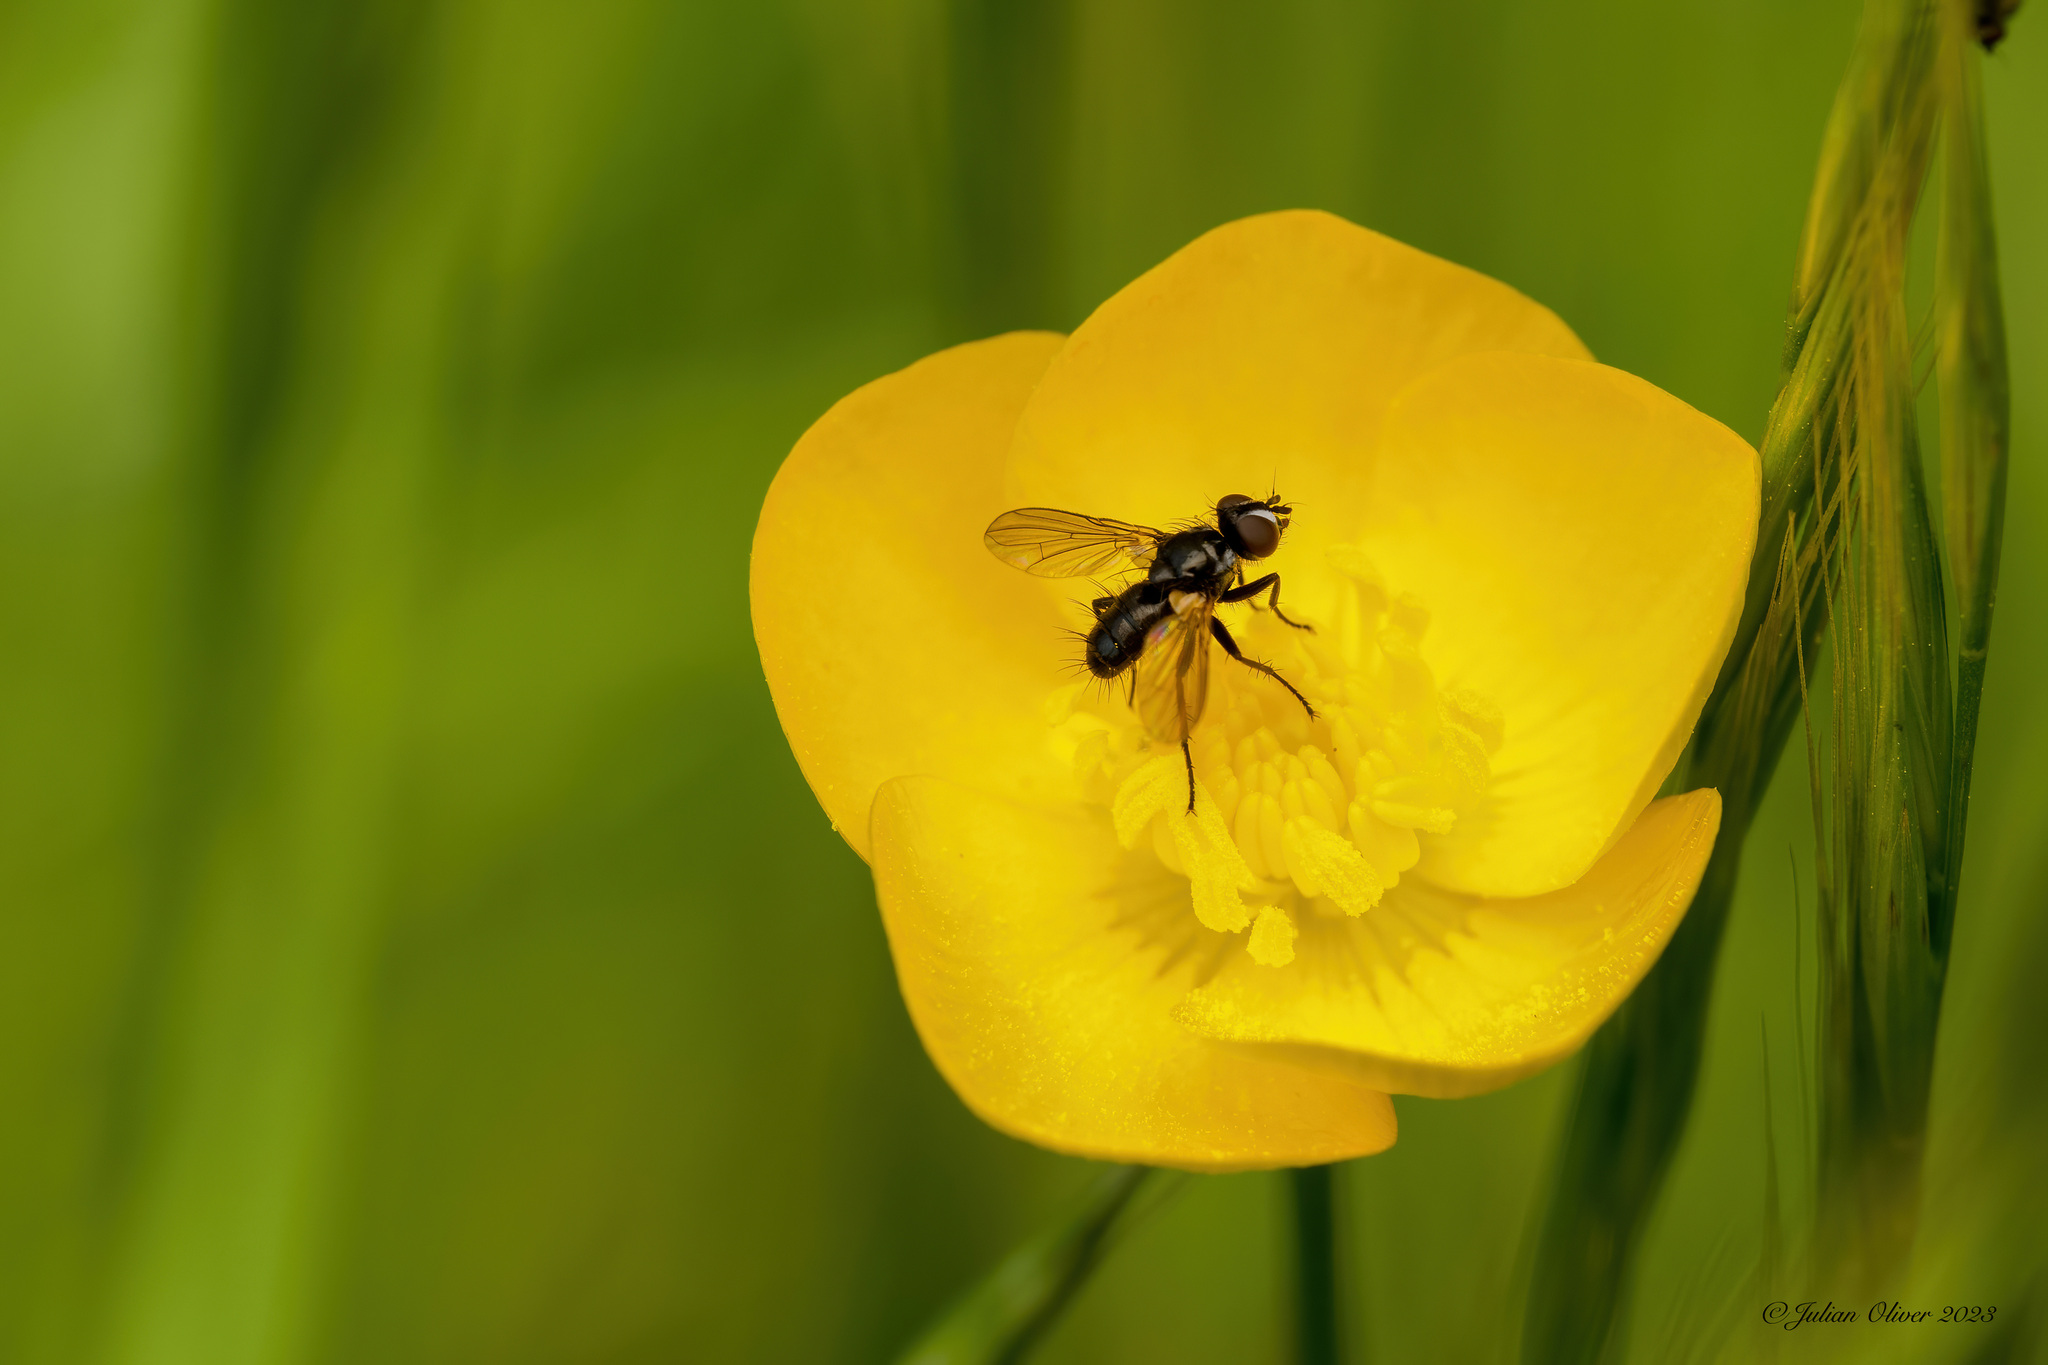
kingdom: Animalia
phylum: Arthropoda
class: Insecta
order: Diptera
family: Tachinidae
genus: Phania
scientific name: Phania funesta
